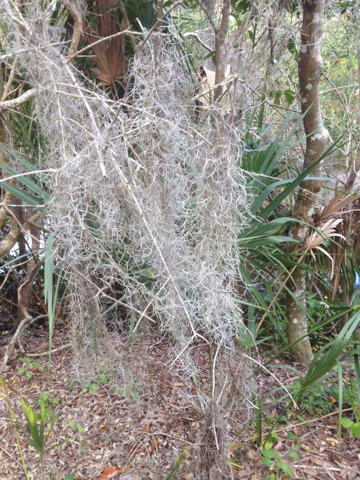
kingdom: Plantae
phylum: Tracheophyta
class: Liliopsida
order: Poales
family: Bromeliaceae
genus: Tillandsia
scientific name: Tillandsia usneoides
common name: Spanish moss
